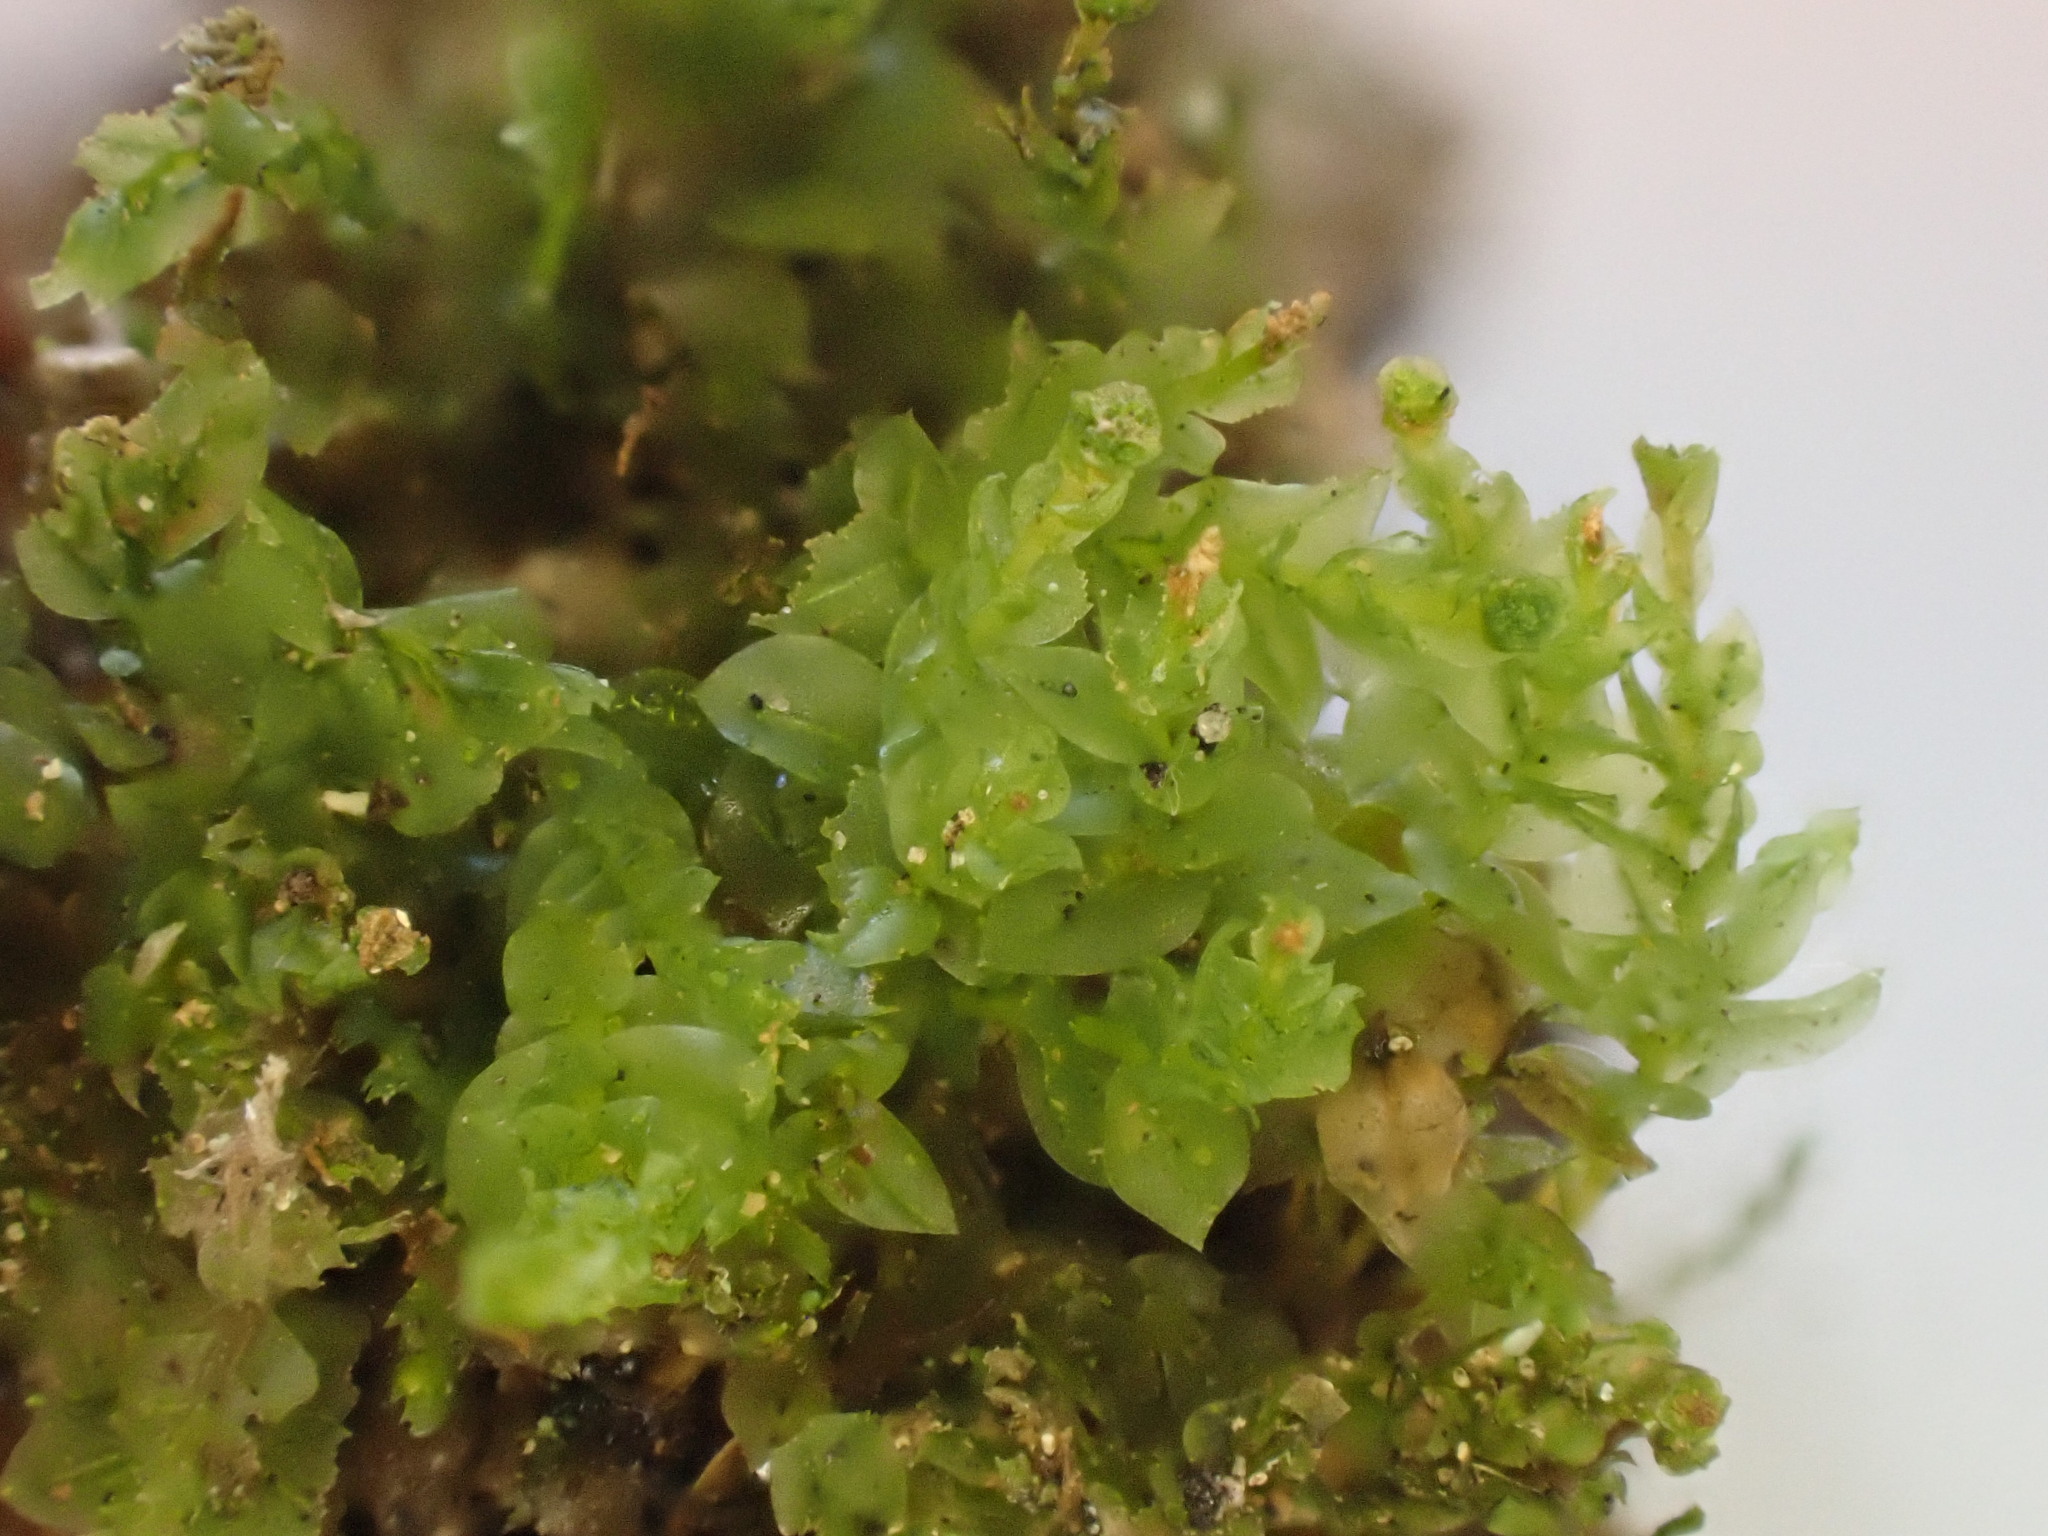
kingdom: Plantae
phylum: Bryophyta
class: Polytrichopsida
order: Tetraphidales
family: Tetraphidaceae
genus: Tetraphis
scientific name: Tetraphis pellucida
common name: Common four-toothed moss
